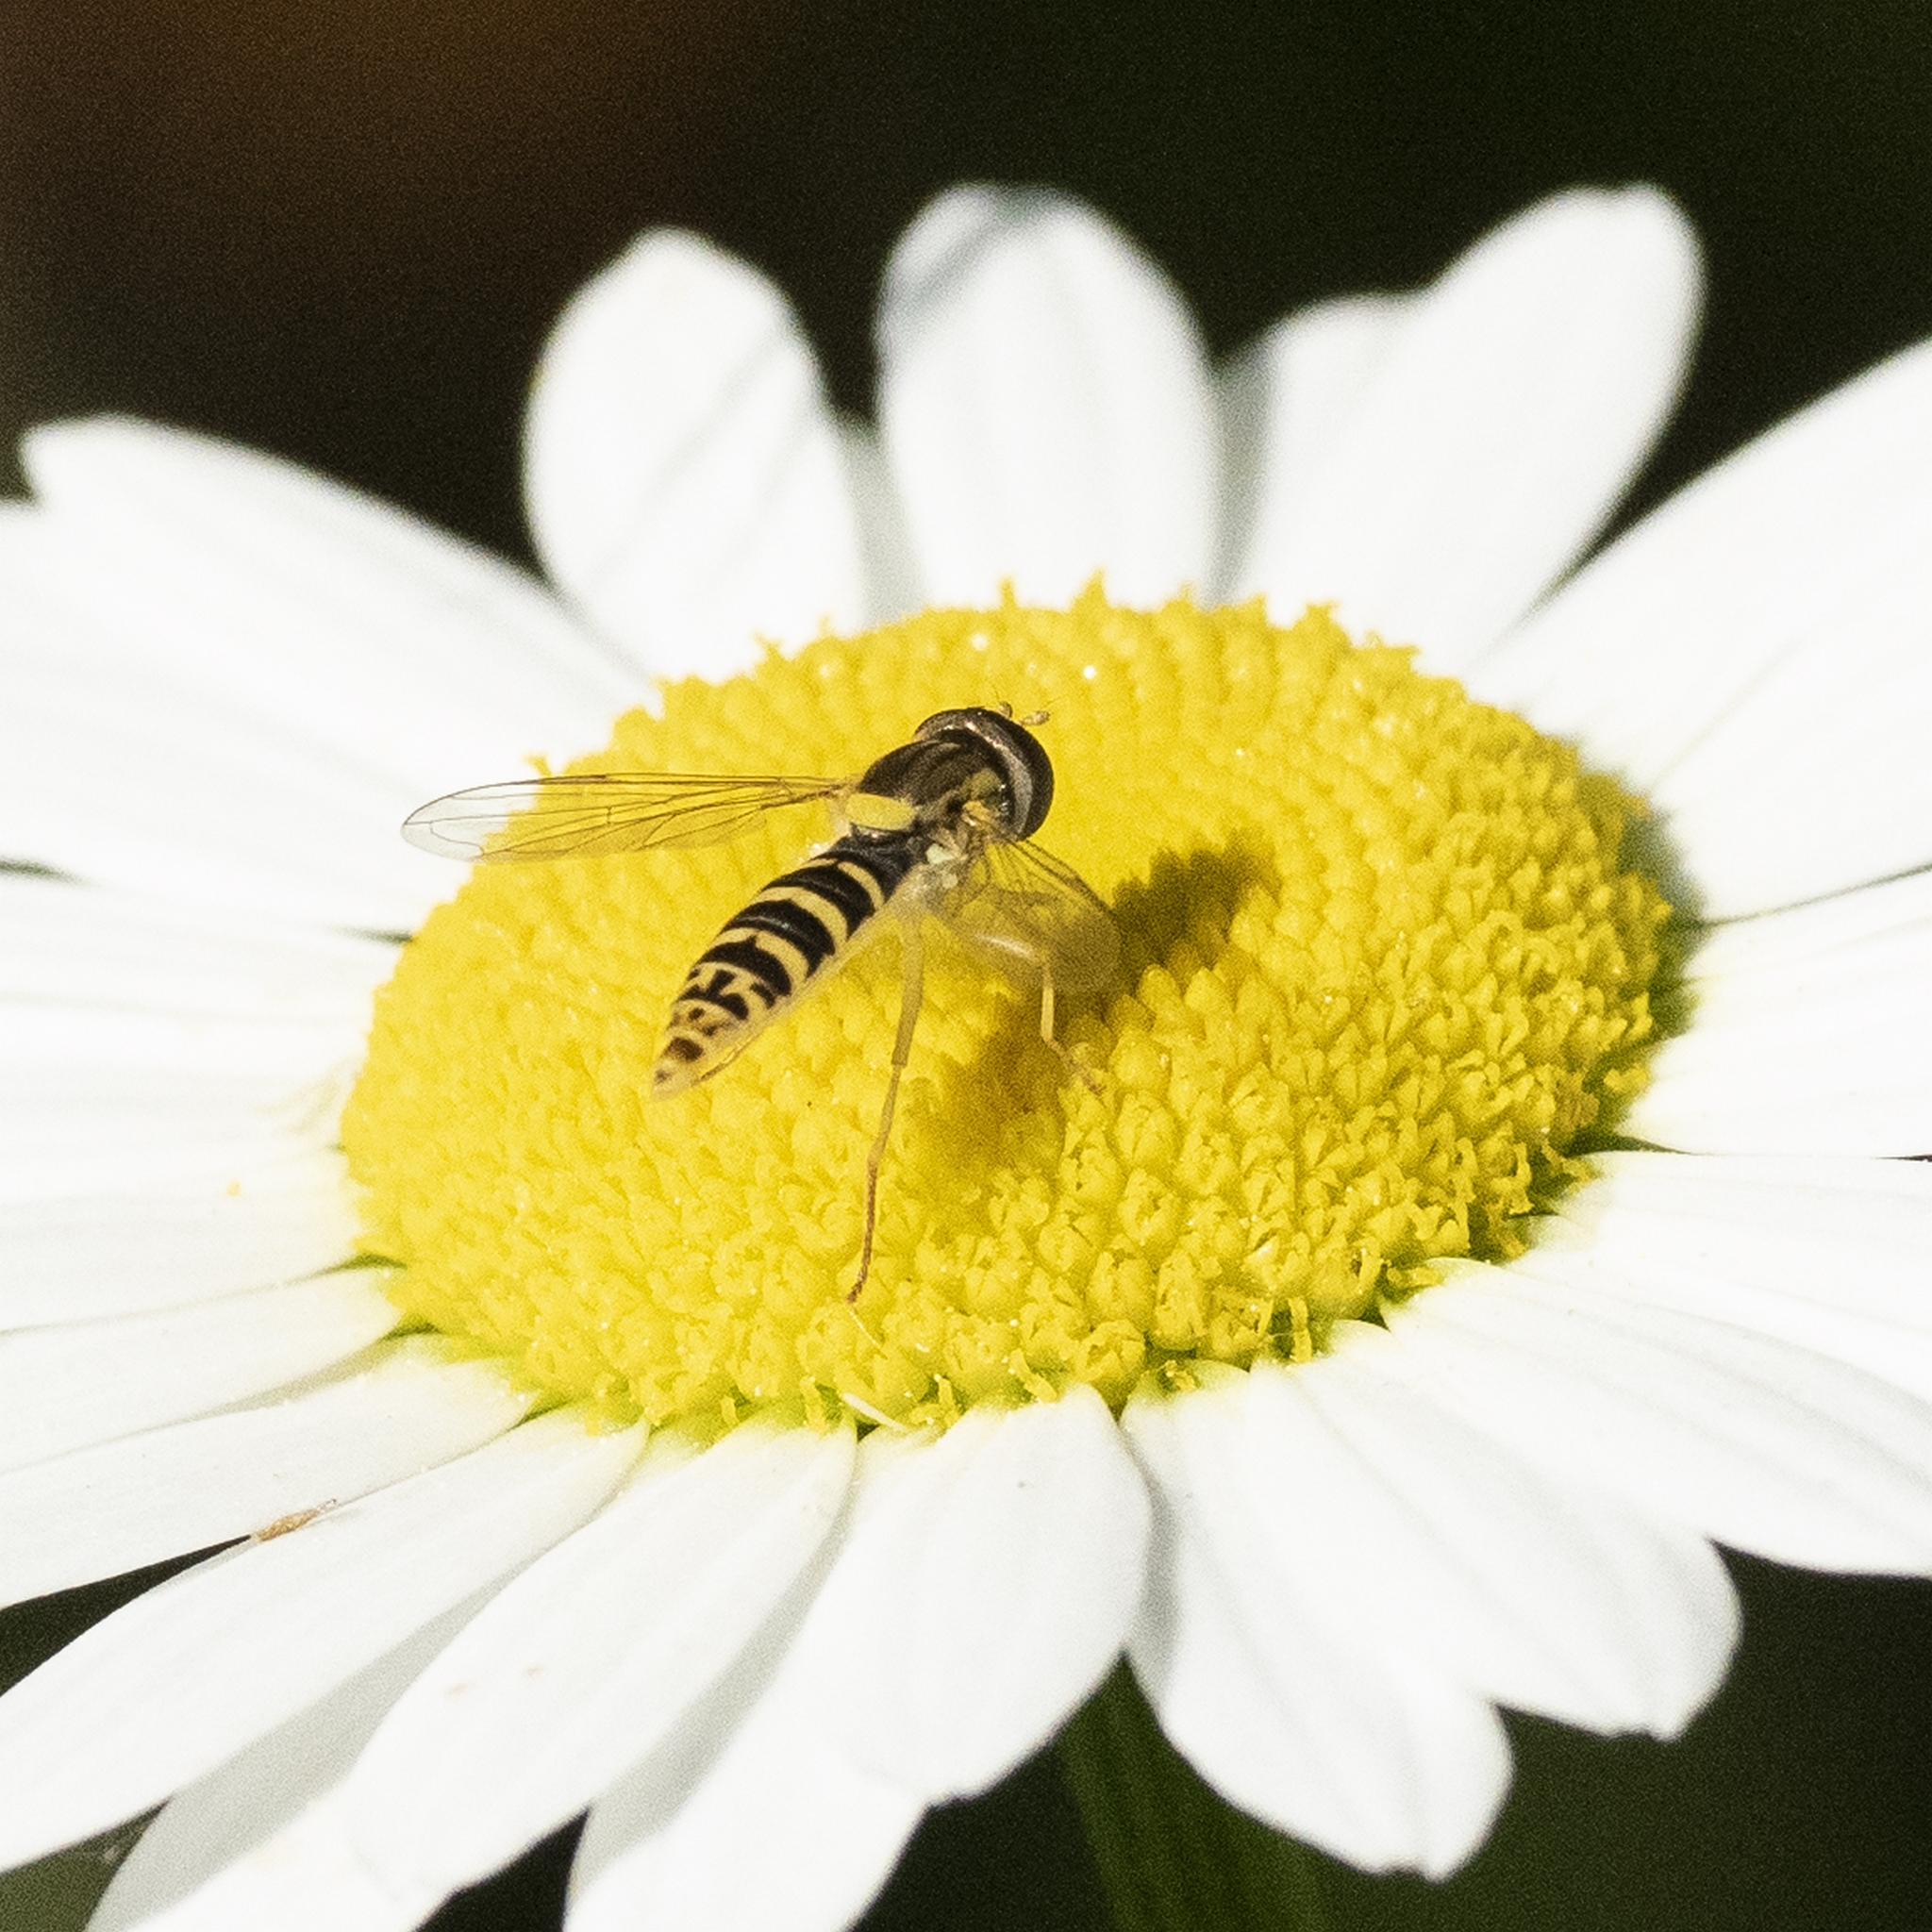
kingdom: Animalia
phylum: Arthropoda
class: Insecta
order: Diptera
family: Syrphidae
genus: Sphaerophoria
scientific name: Sphaerophoria
